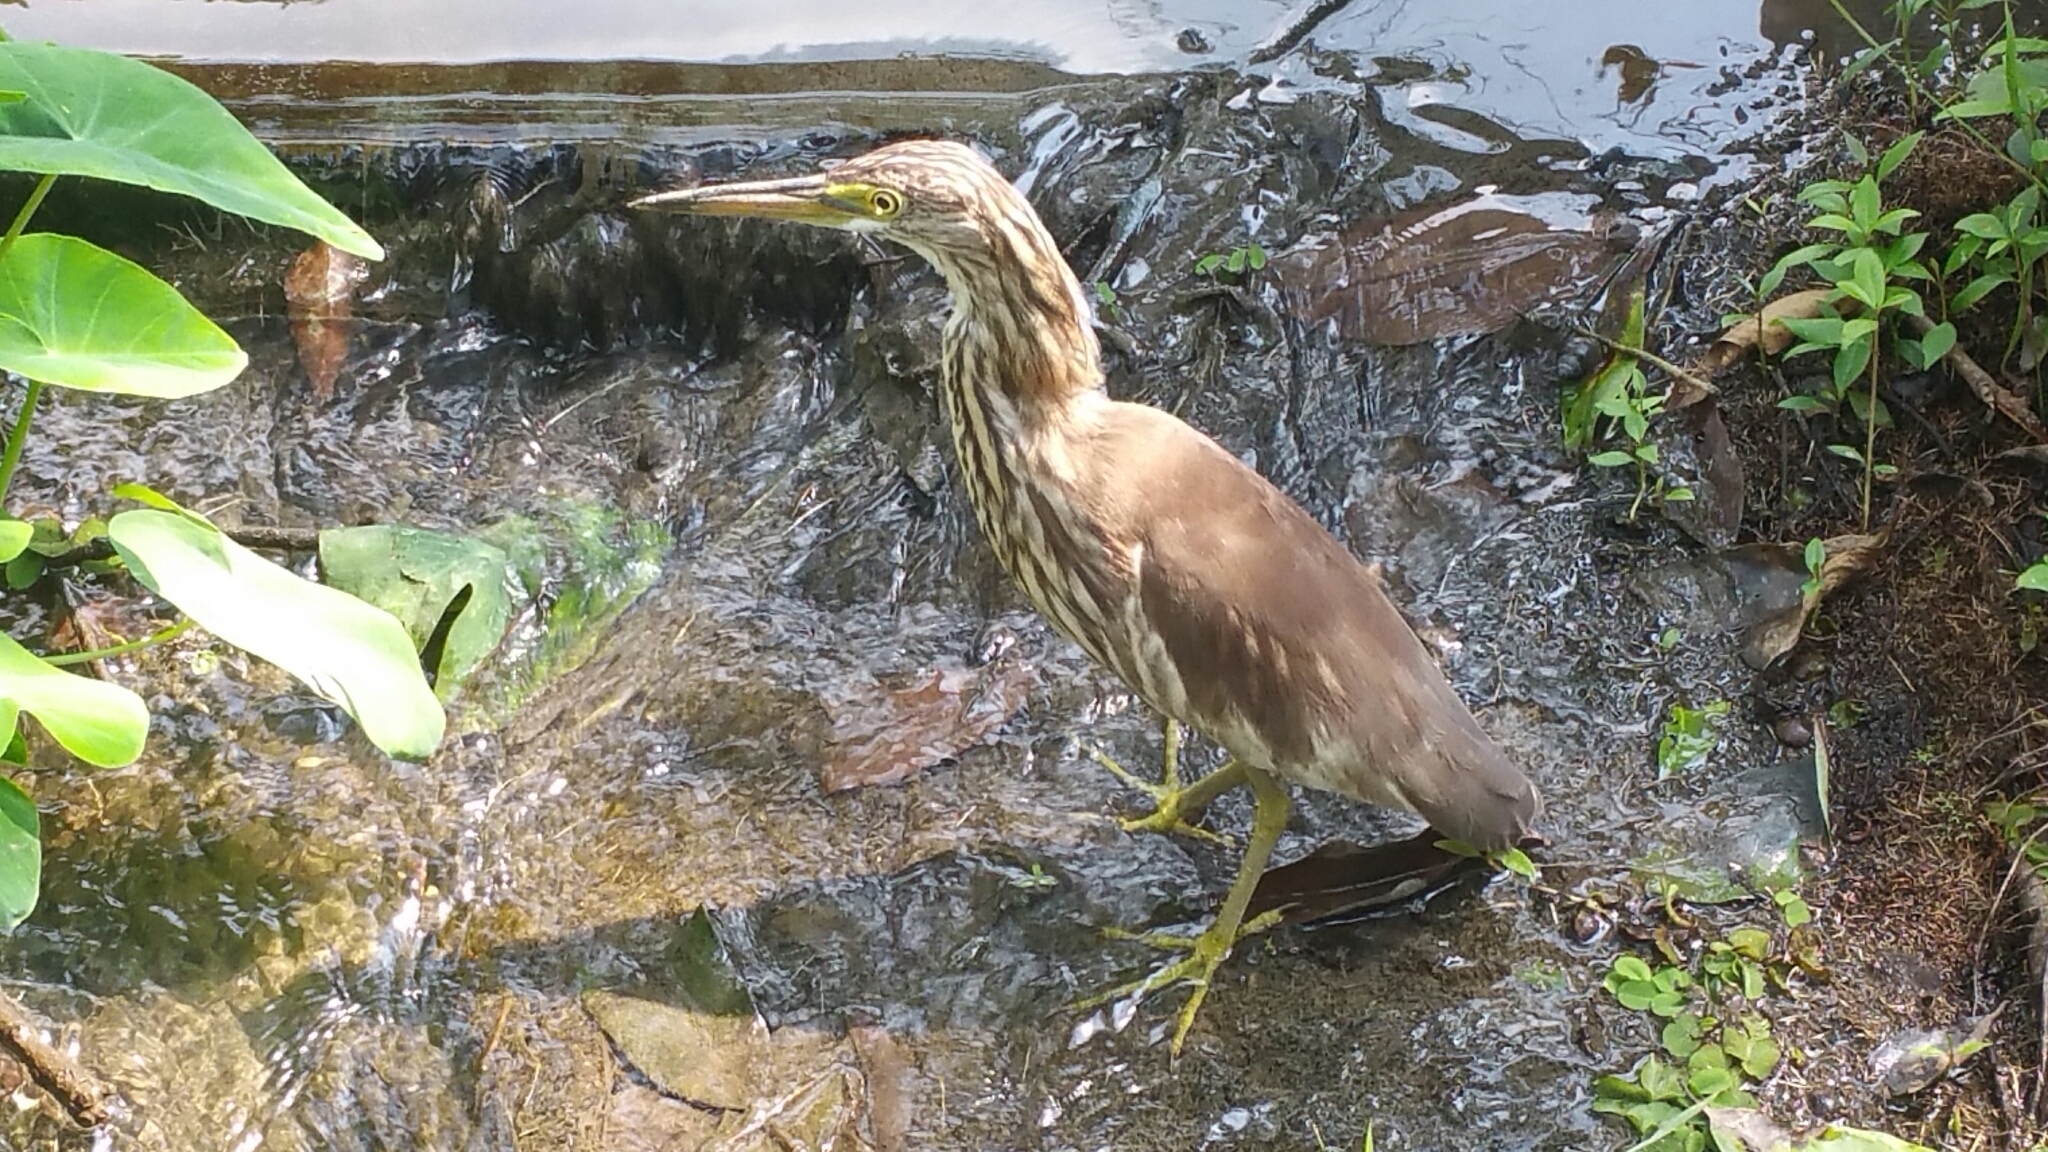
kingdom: Animalia
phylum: Chordata
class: Aves
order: Pelecaniformes
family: Ardeidae
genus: Ardeola
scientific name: Ardeola bacchus
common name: Chinese pond heron
